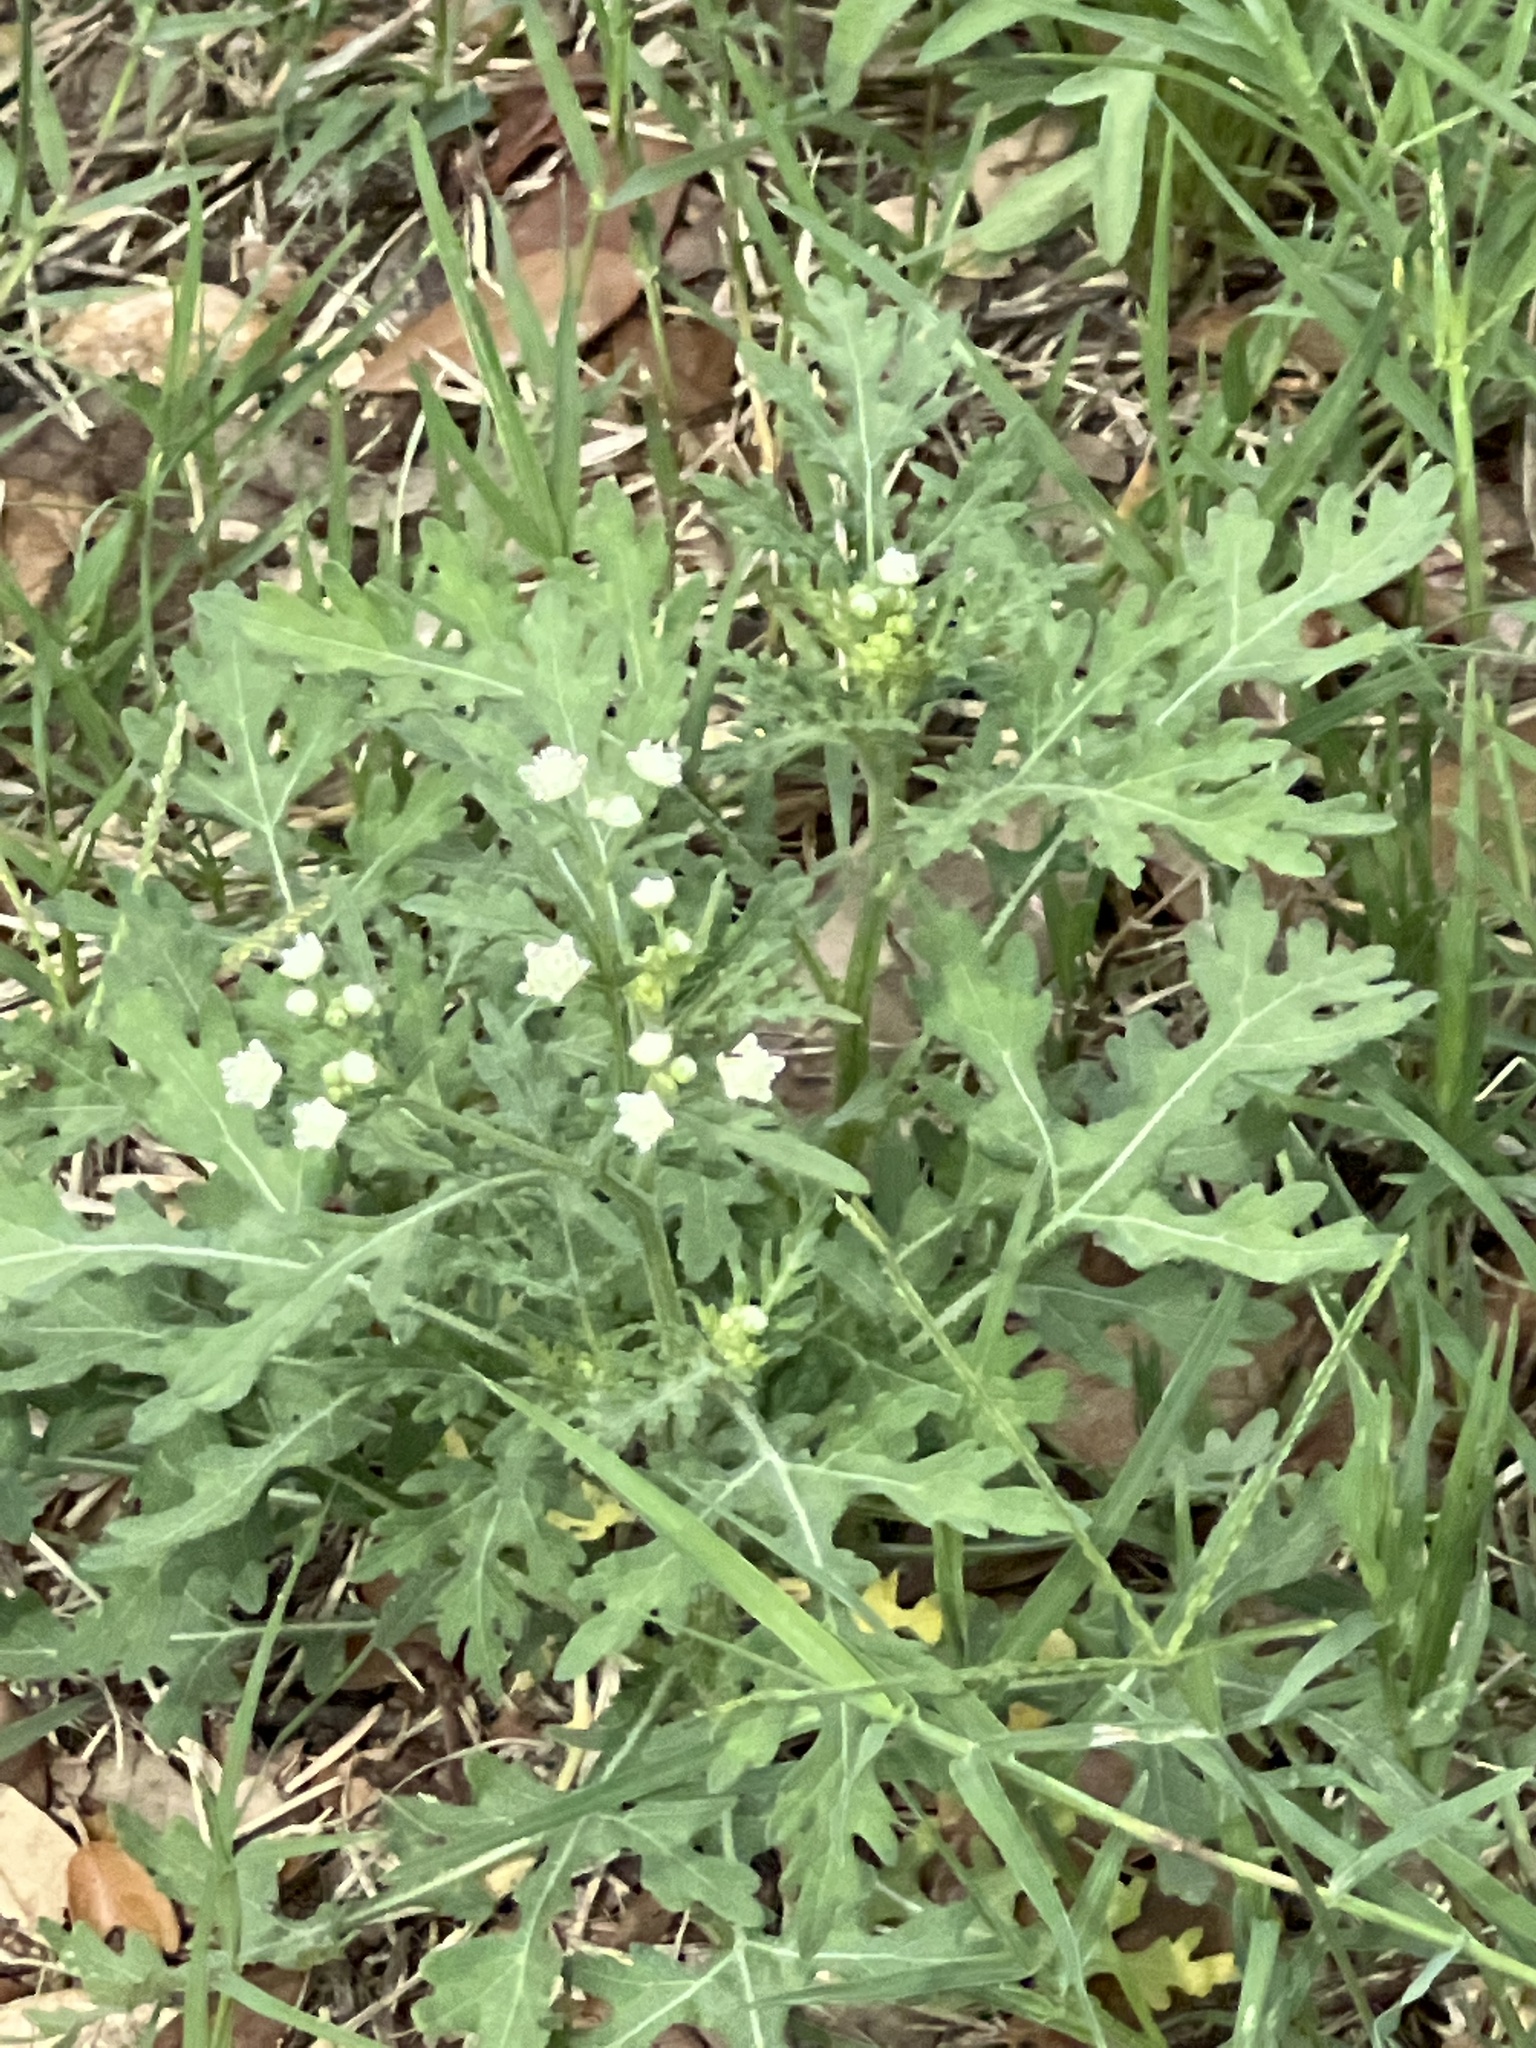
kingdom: Plantae
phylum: Tracheophyta
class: Magnoliopsida
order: Asterales
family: Asteraceae
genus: Parthenium
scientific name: Parthenium hysterophorus
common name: Santa maria feverfew
